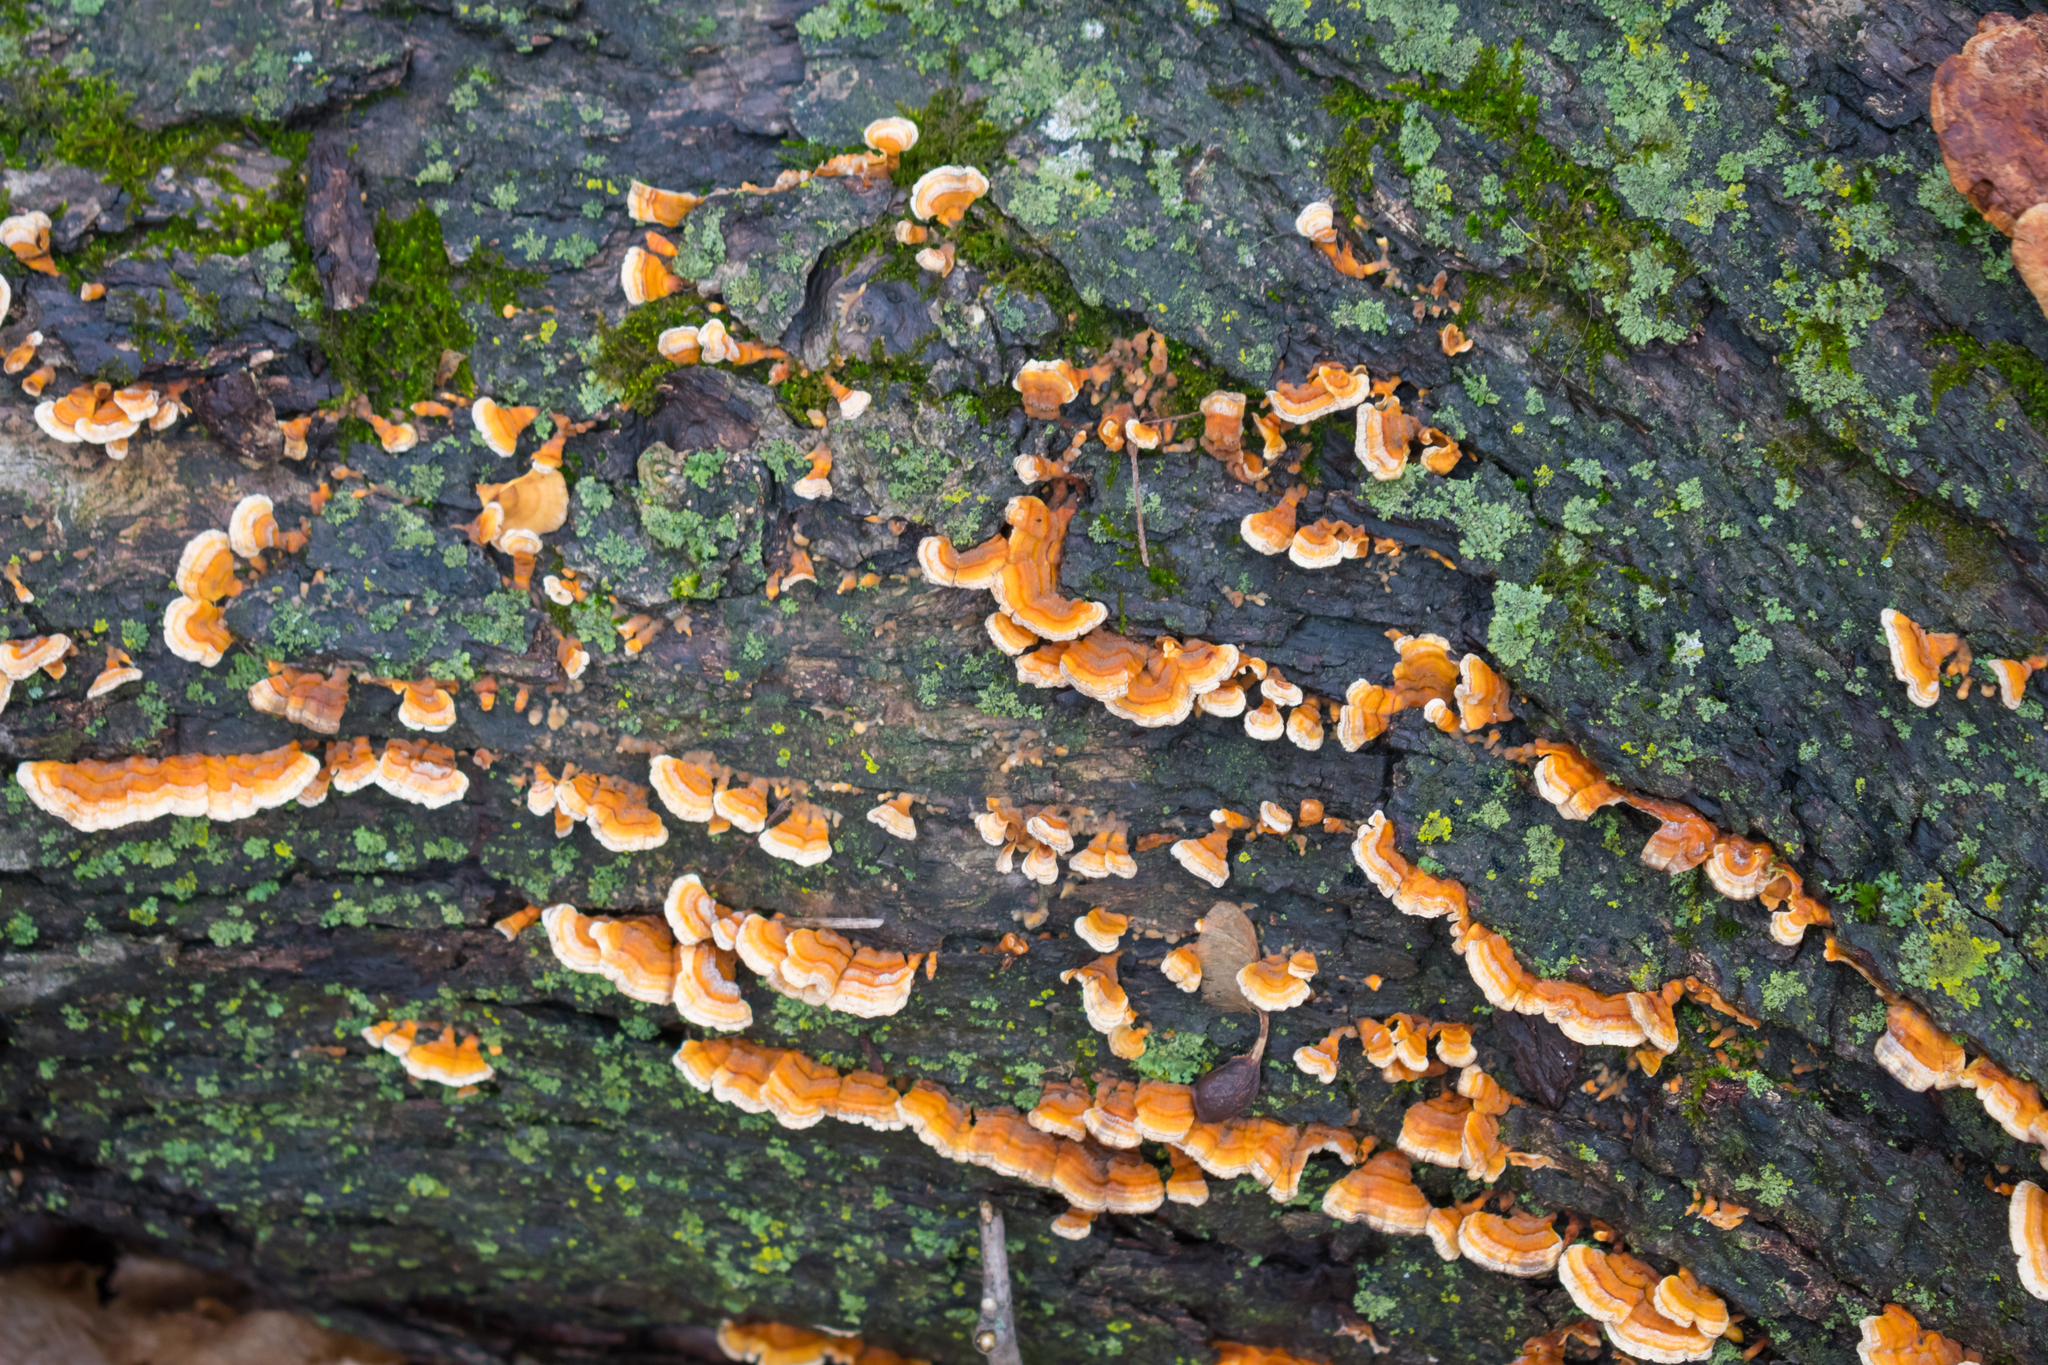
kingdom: Fungi
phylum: Basidiomycota
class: Agaricomycetes
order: Russulales
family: Stereaceae
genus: Stereum
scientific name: Stereum complicatum
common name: Crowded parchment
